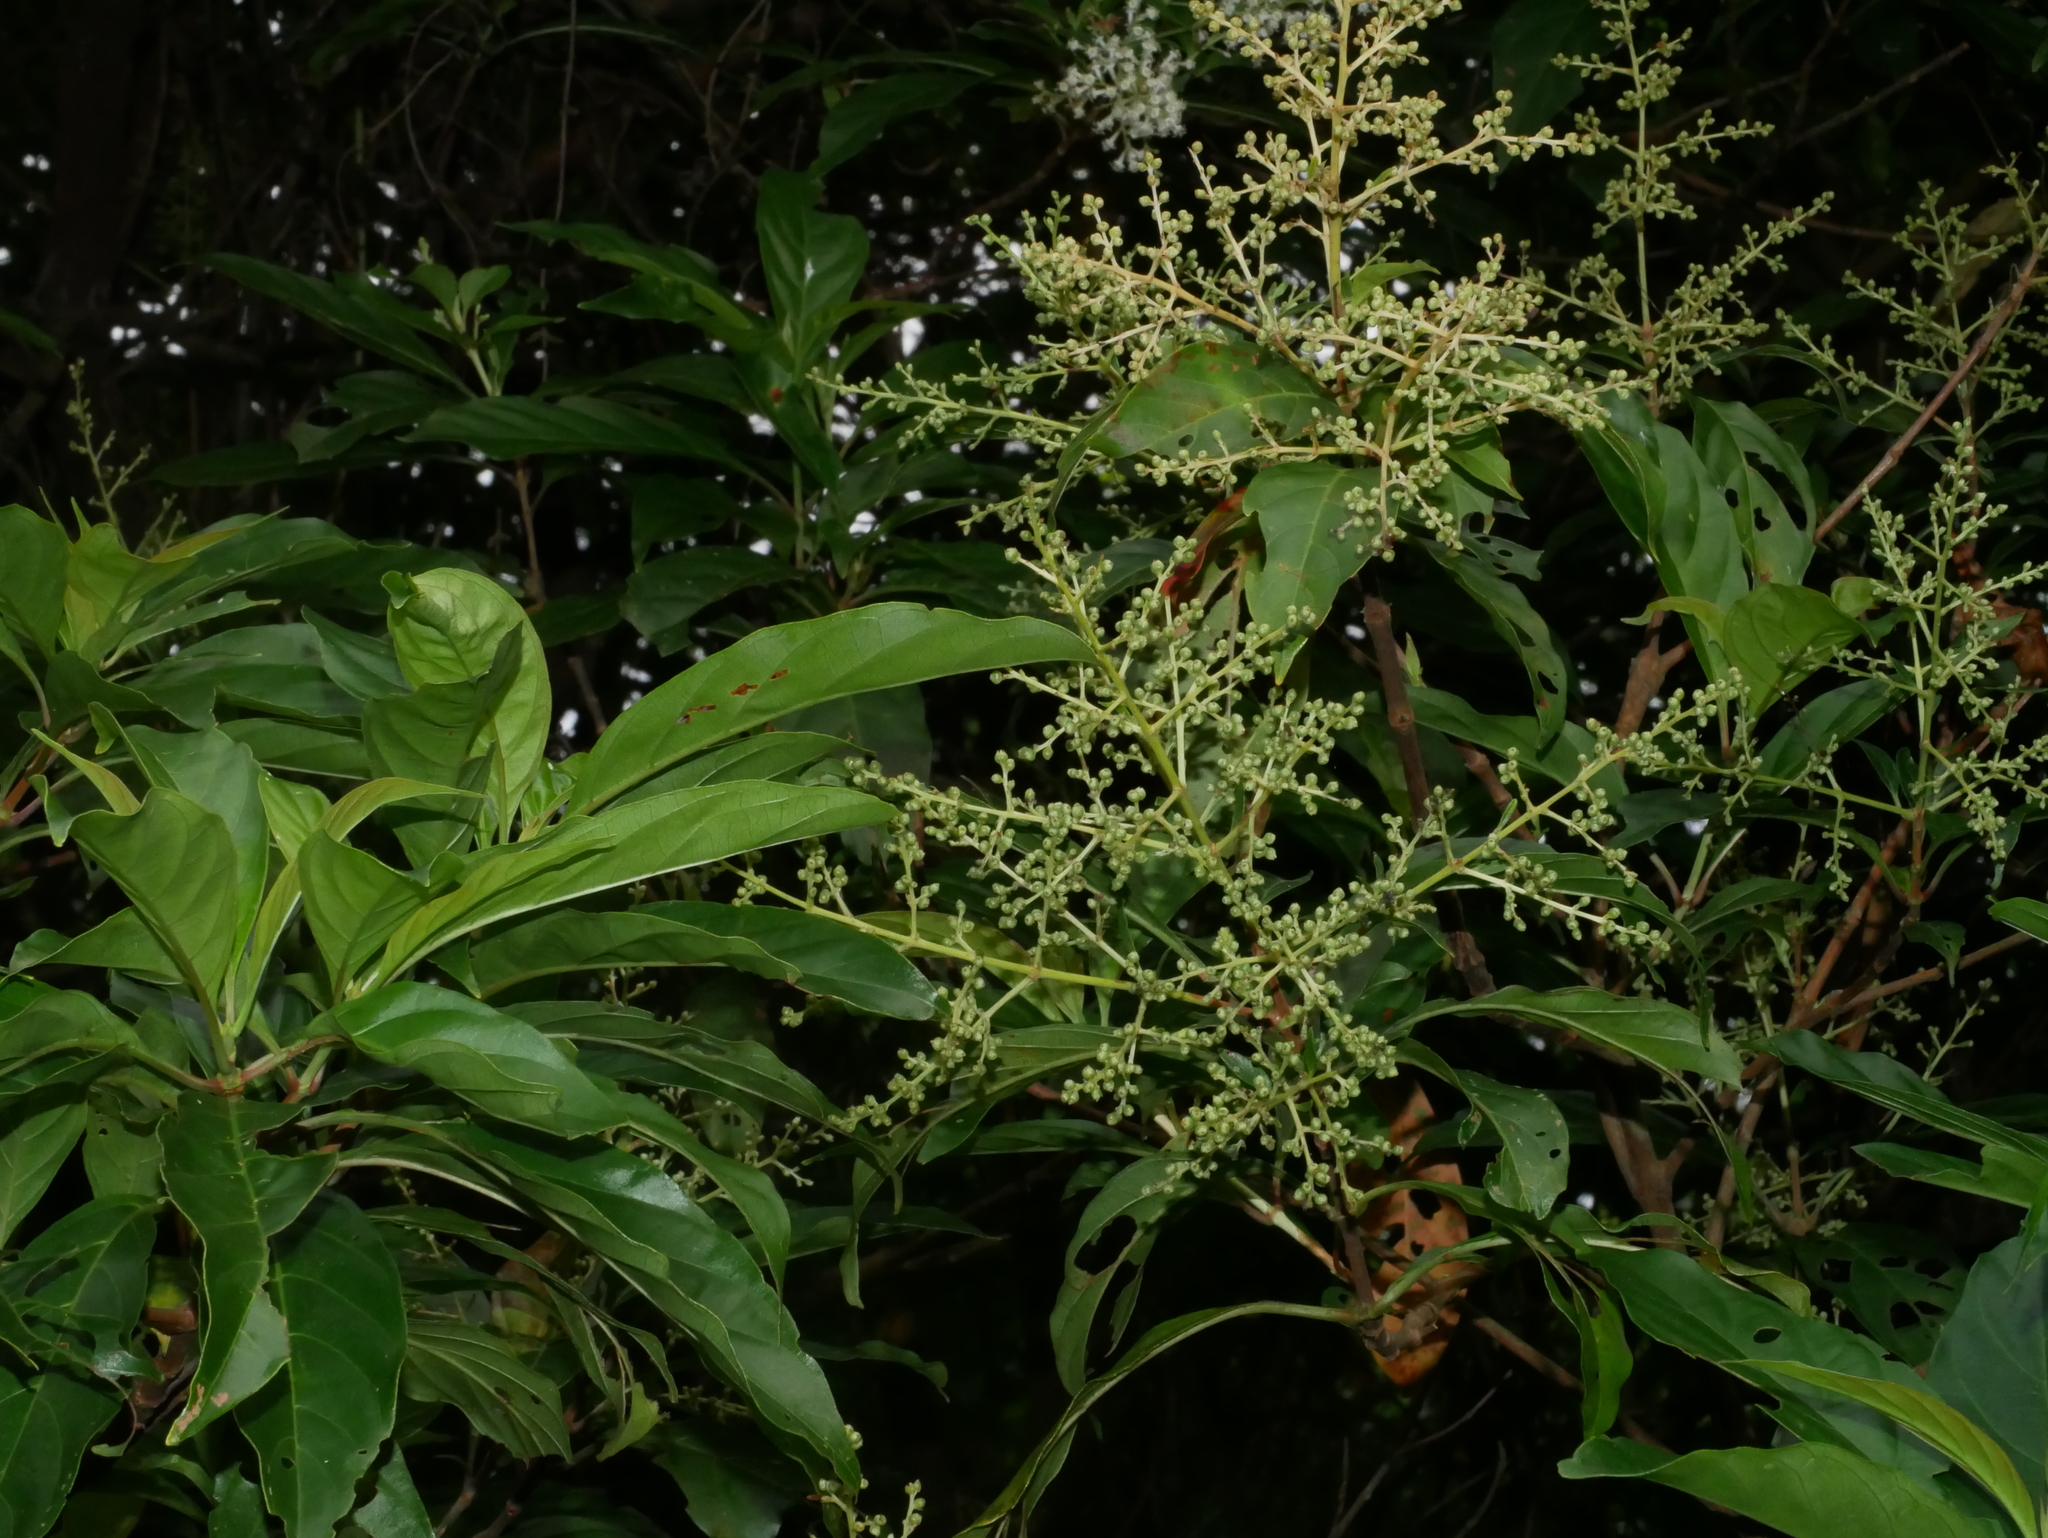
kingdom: Plantae
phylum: Tracheophyta
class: Magnoliopsida
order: Gentianales
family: Rubiaceae
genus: Wendlandia
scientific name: Wendlandia formosana
